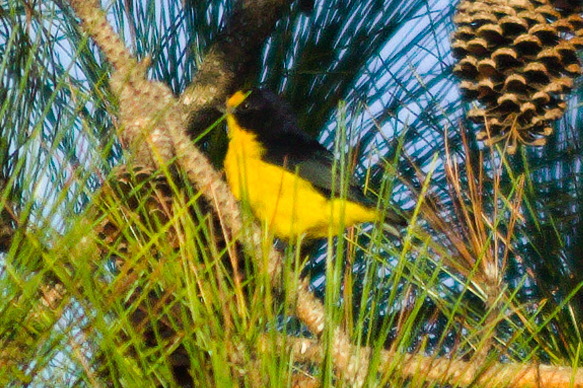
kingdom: Animalia
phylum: Chordata
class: Aves
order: Passeriformes
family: Fringillidae
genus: Euphonia
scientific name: Euphonia violacea
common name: Violaceous euphonia
